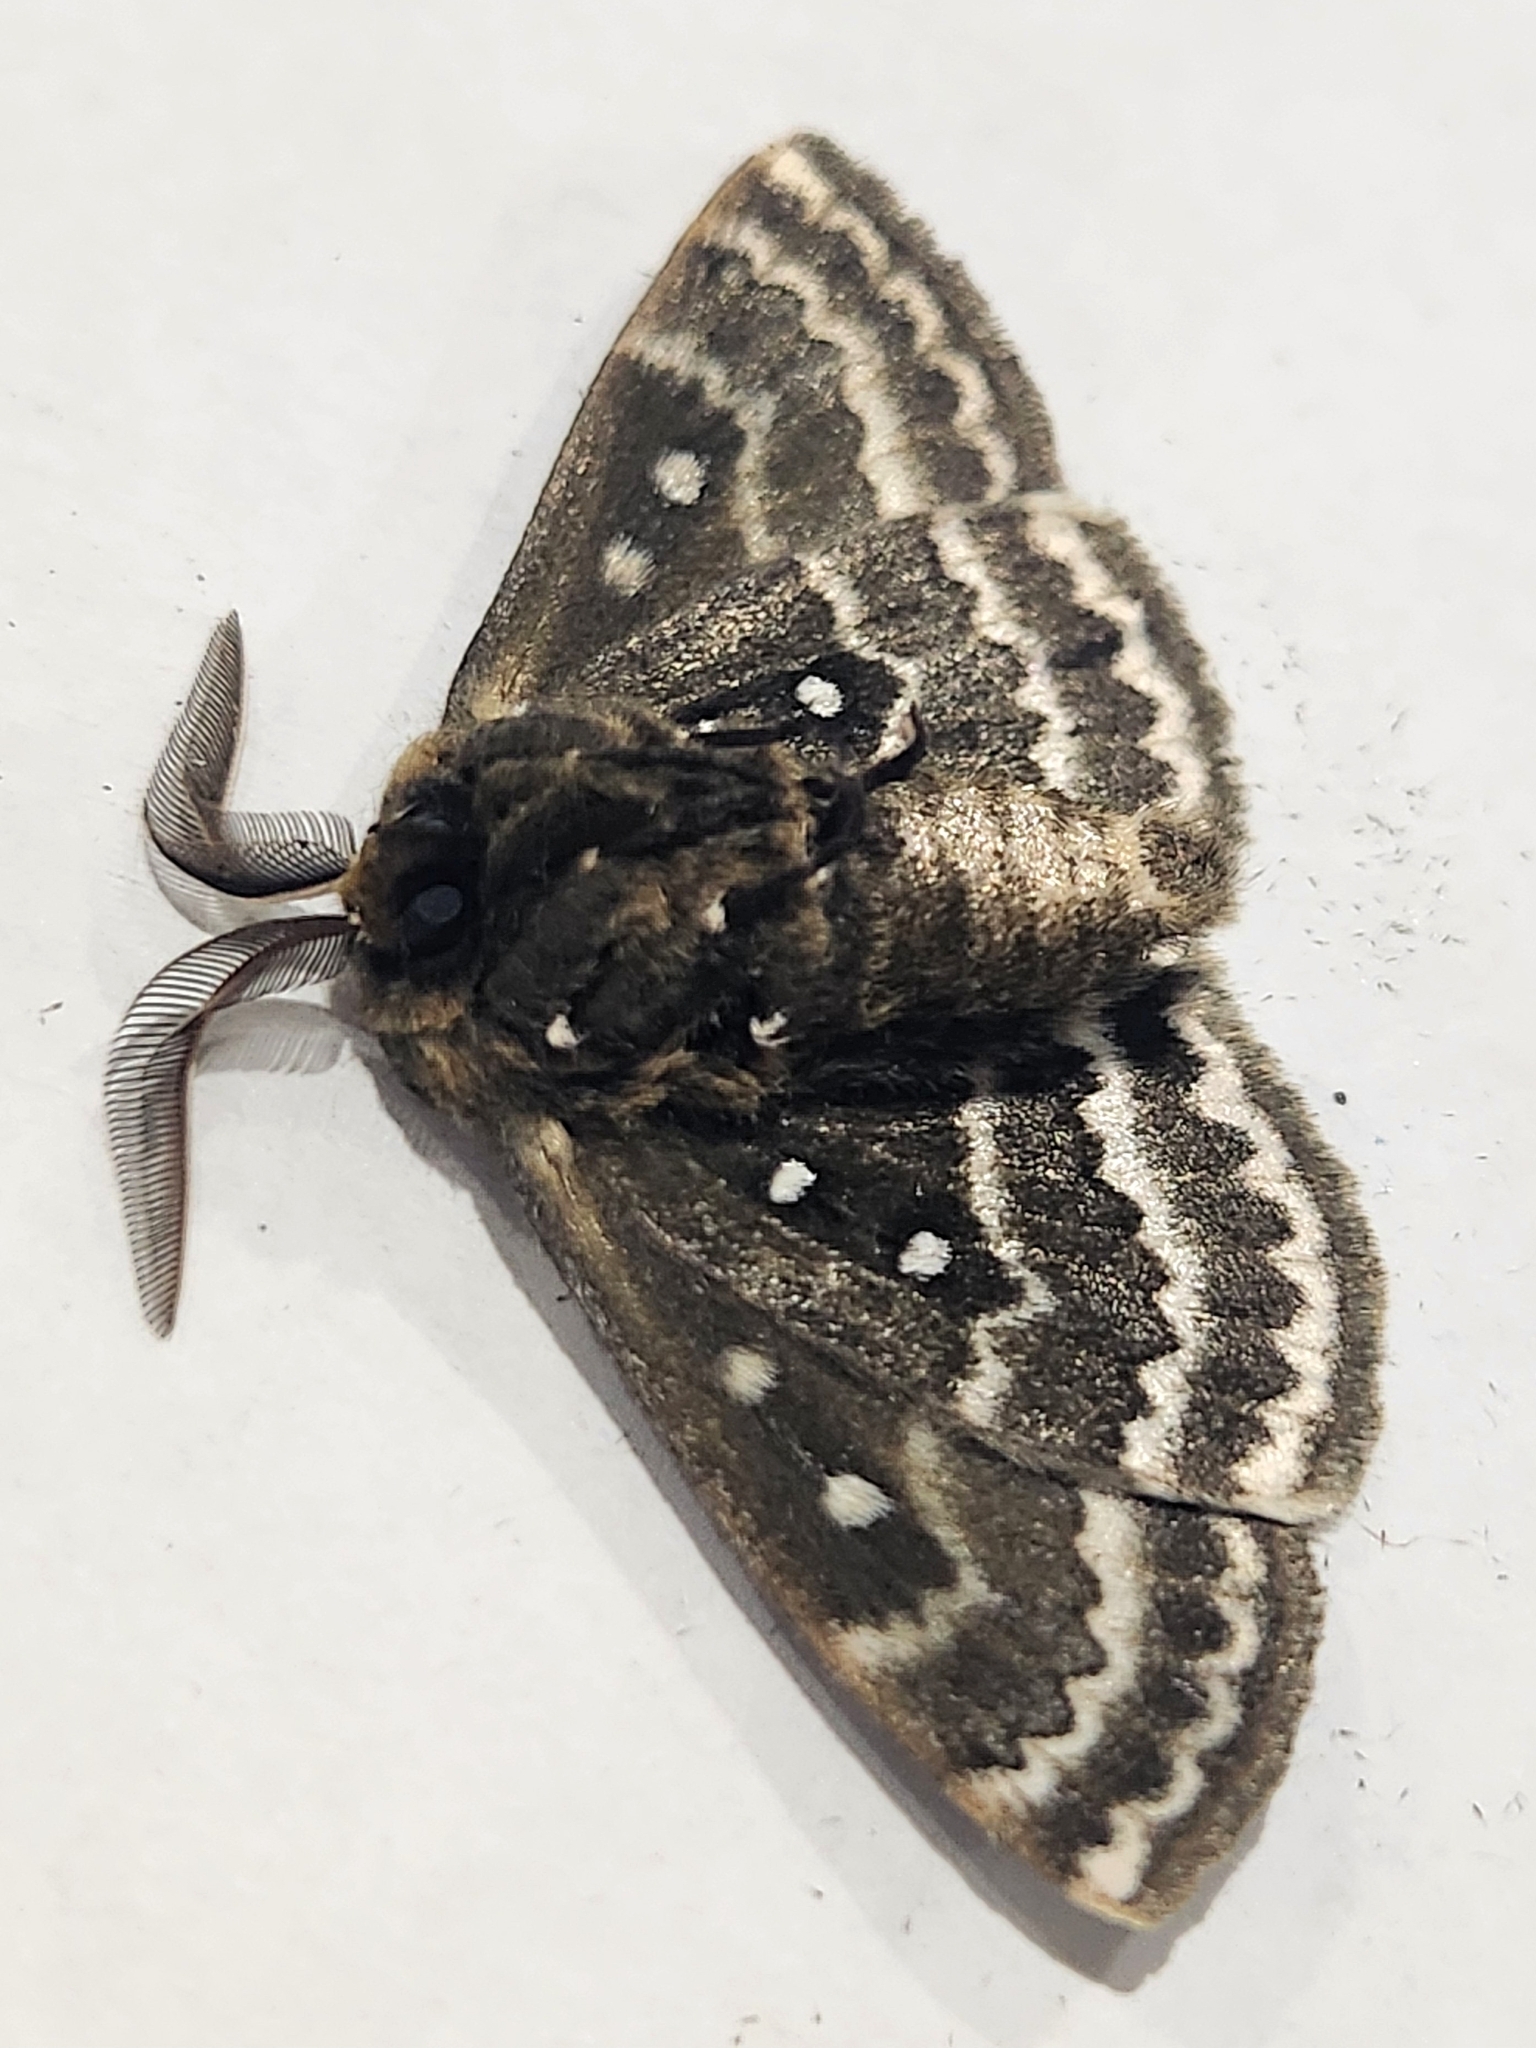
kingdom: Animalia
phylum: Arthropoda
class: Insecta
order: Lepidoptera
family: Anthelidae
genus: Anthela
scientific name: Anthela euryphrica
